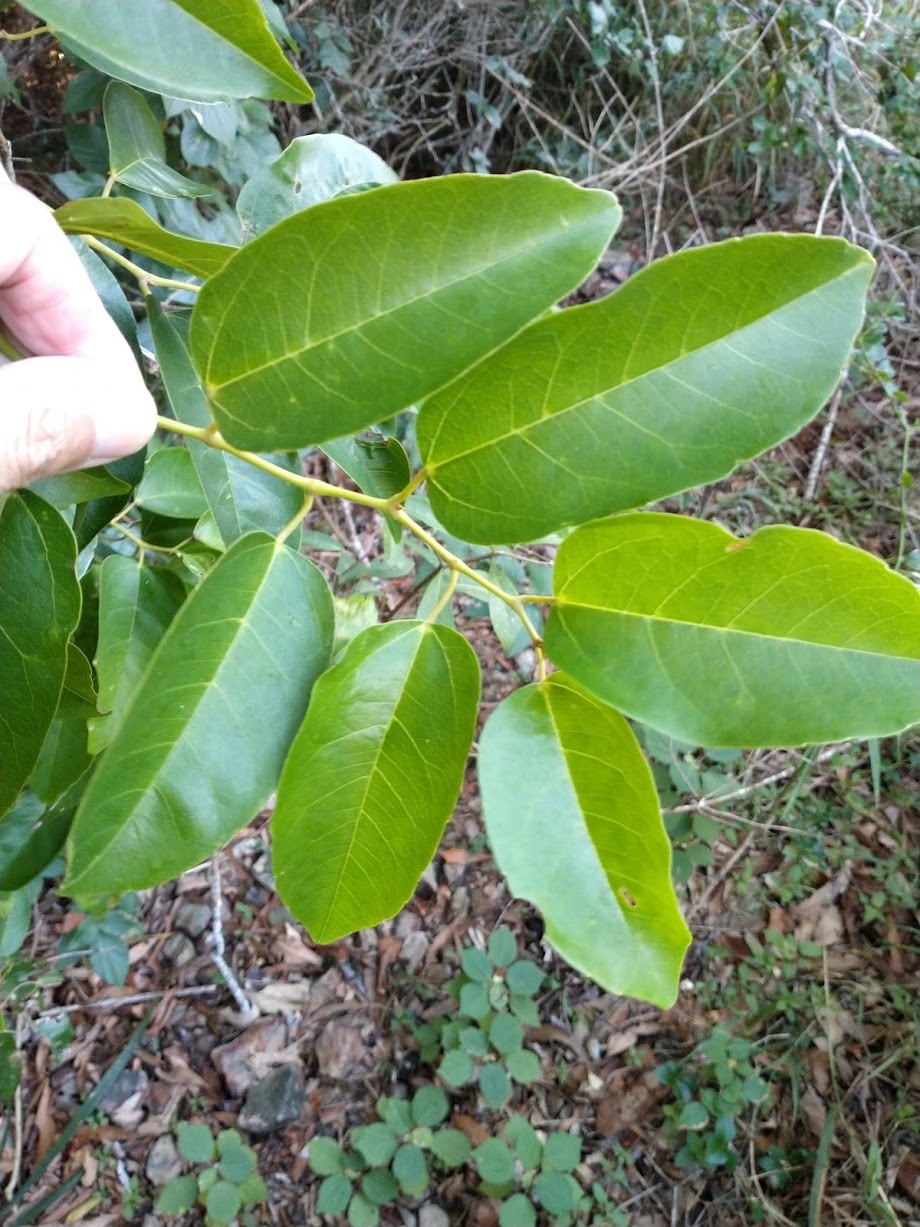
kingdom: Plantae
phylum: Tracheophyta
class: Magnoliopsida
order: Vitales
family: Vitaceae
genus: Cissus
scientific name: Cissus oblonga
